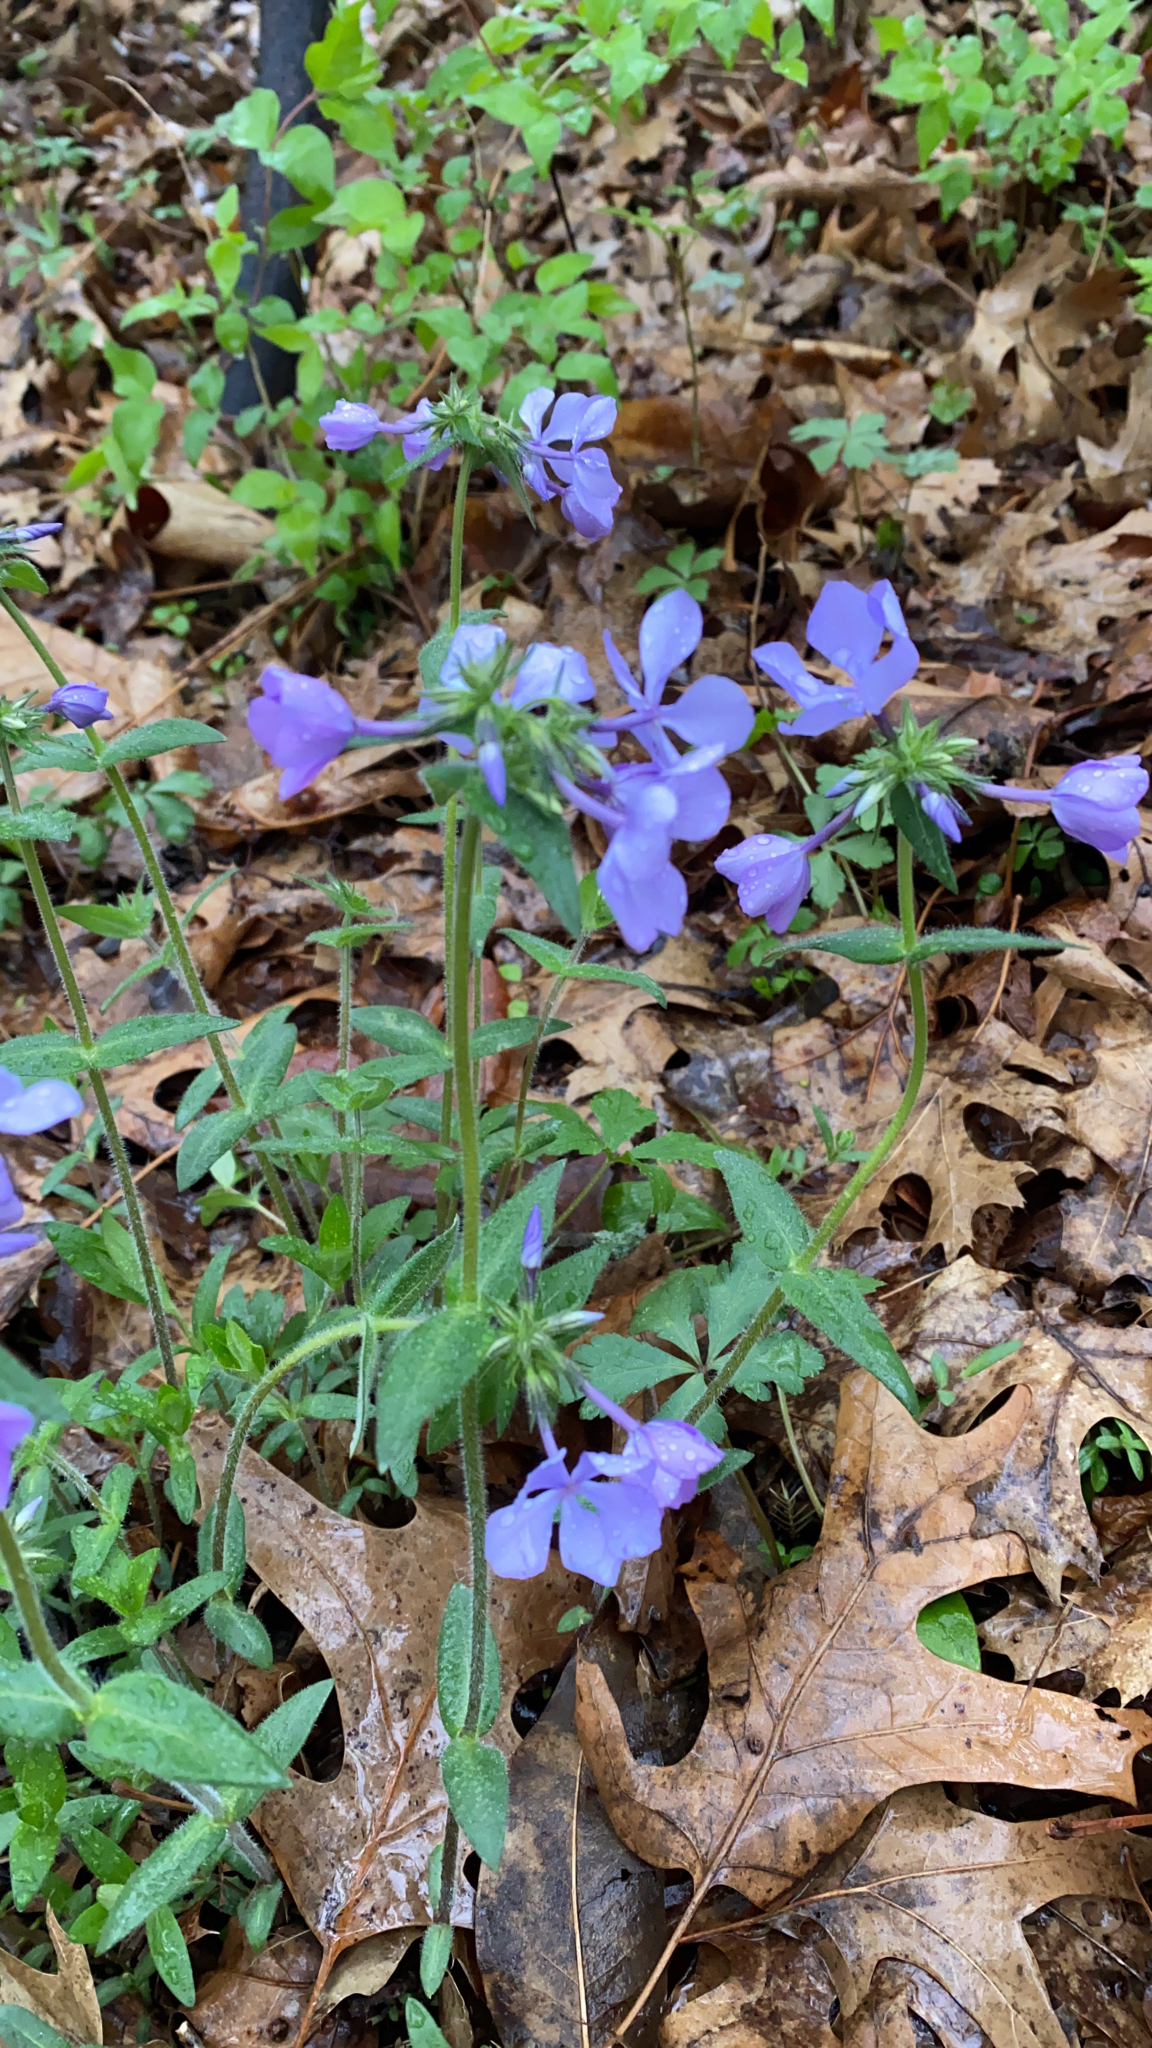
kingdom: Plantae
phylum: Tracheophyta
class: Magnoliopsida
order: Ericales
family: Polemoniaceae
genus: Phlox
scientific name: Phlox divaricata
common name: Blue phlox
